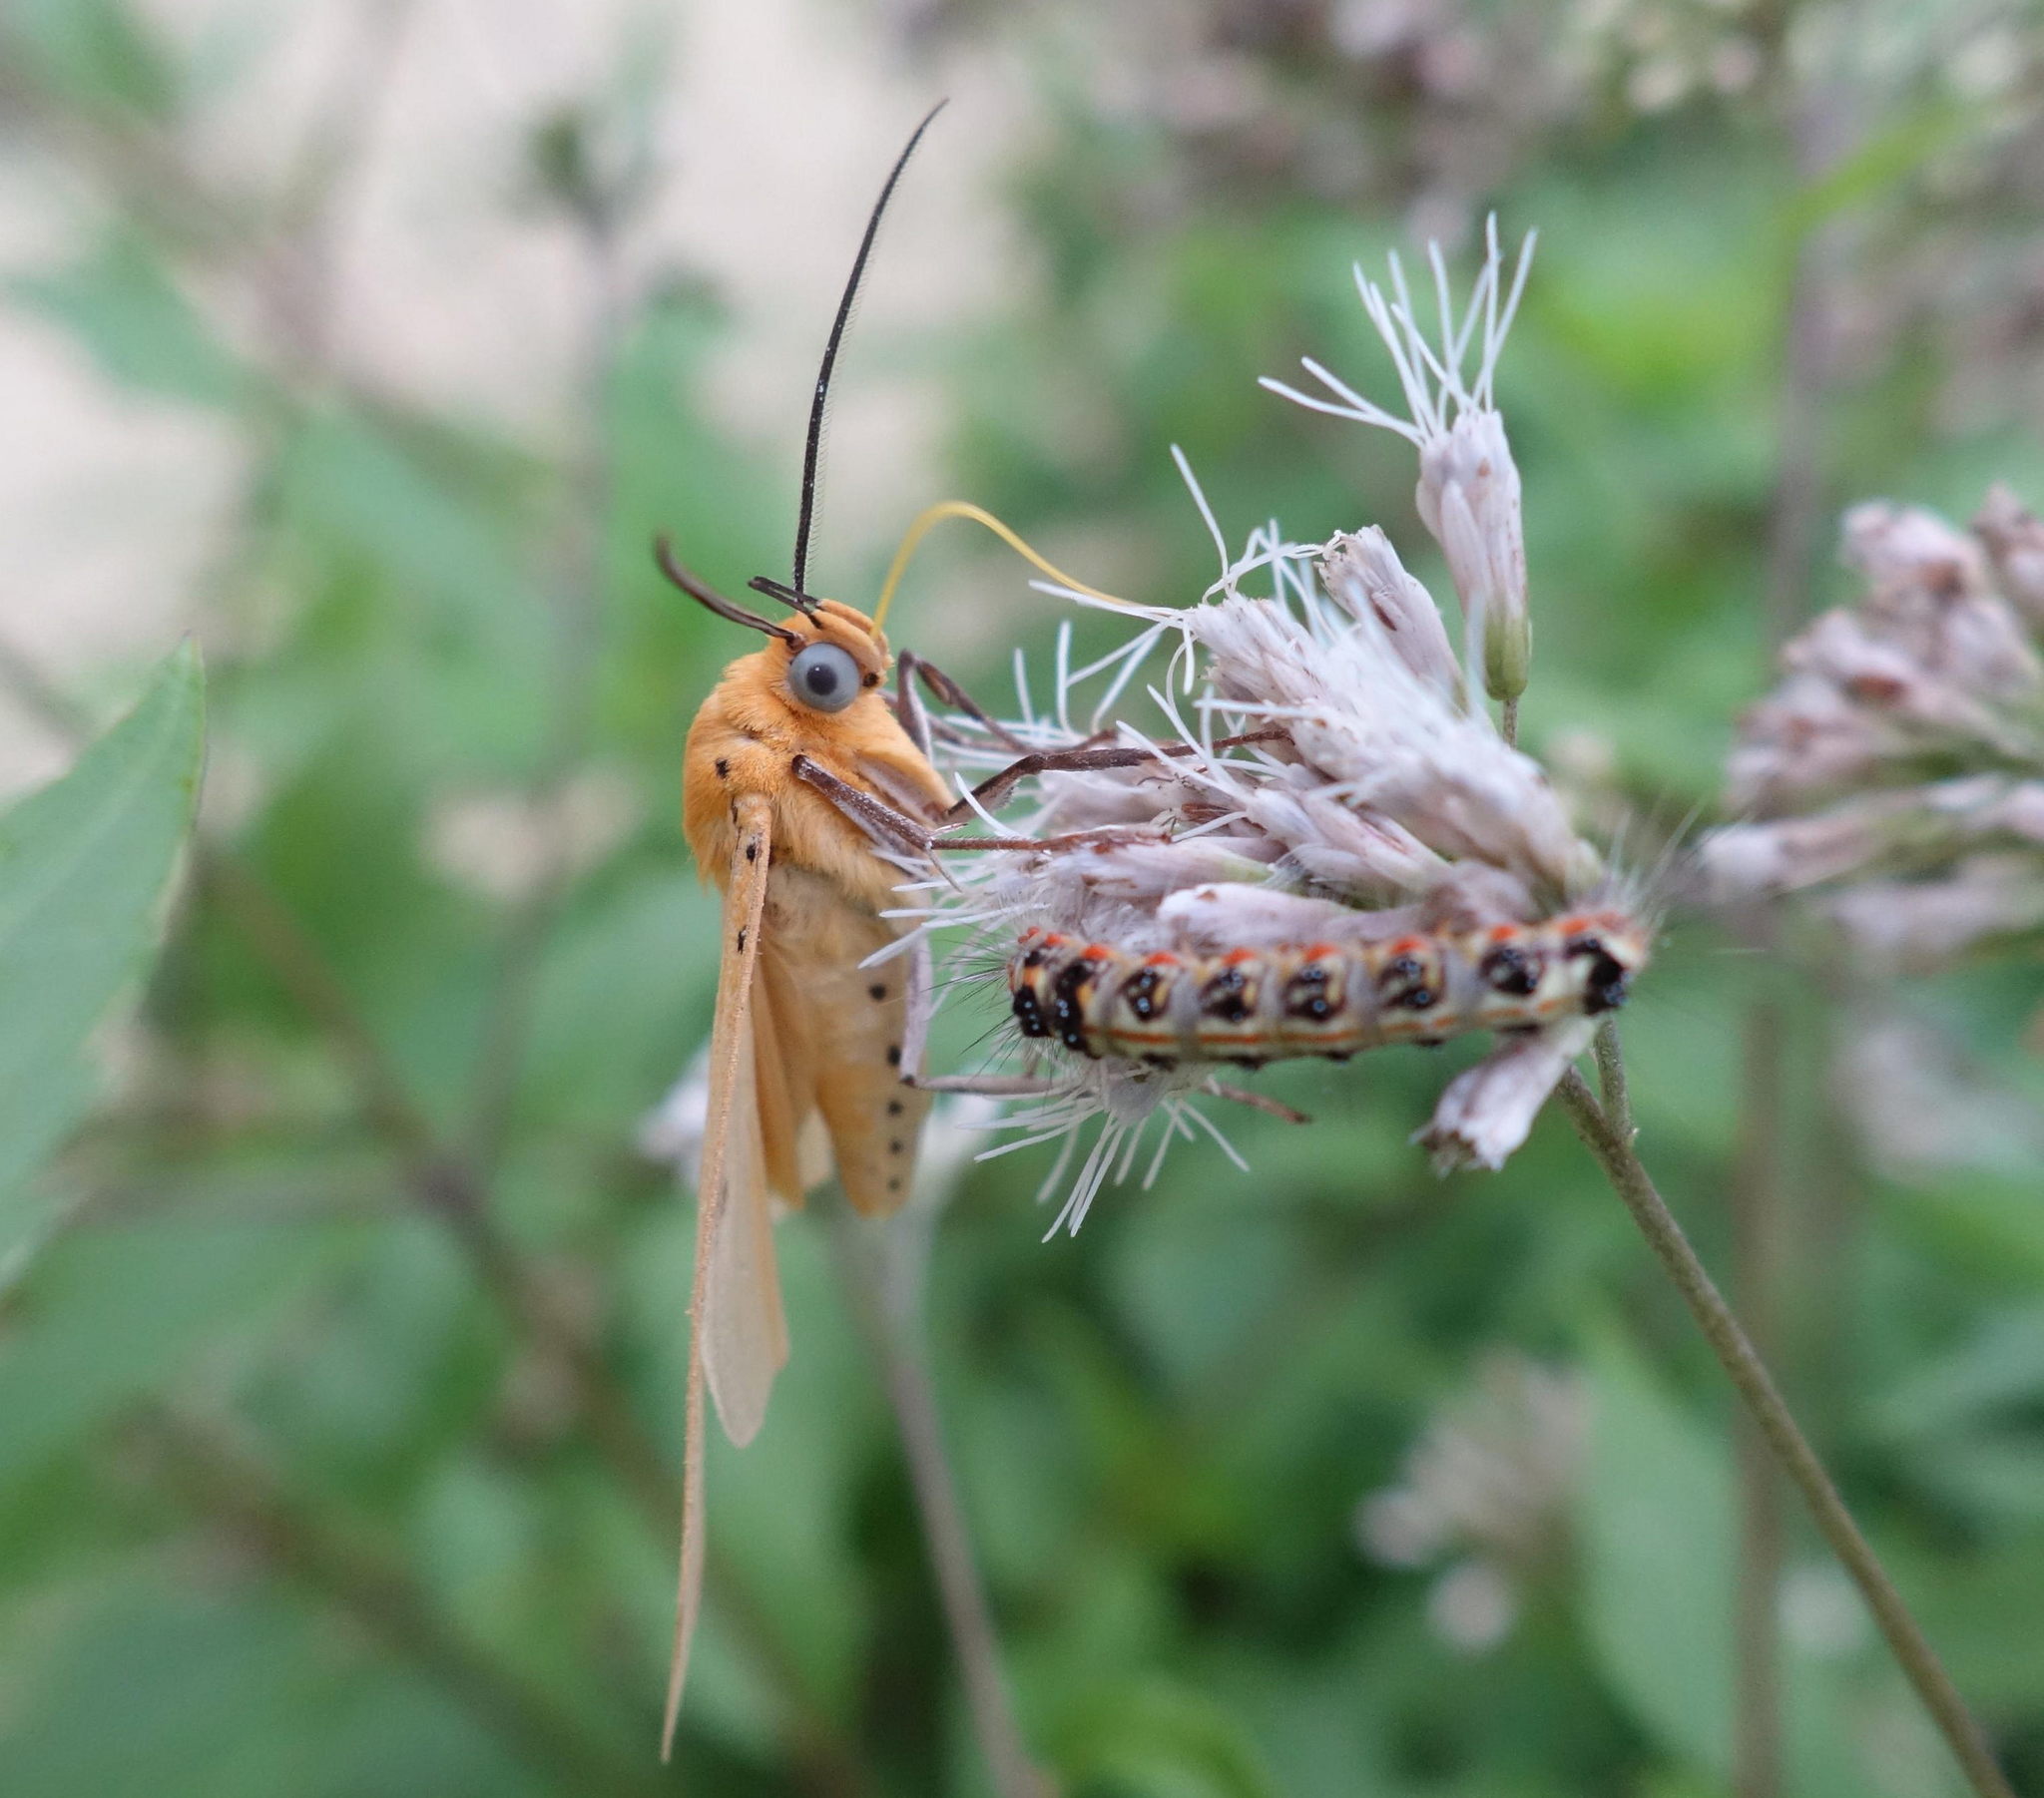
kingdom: Animalia
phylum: Arthropoda
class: Insecta
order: Lepidoptera
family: Erebidae
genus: Asota
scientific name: Asota egens
